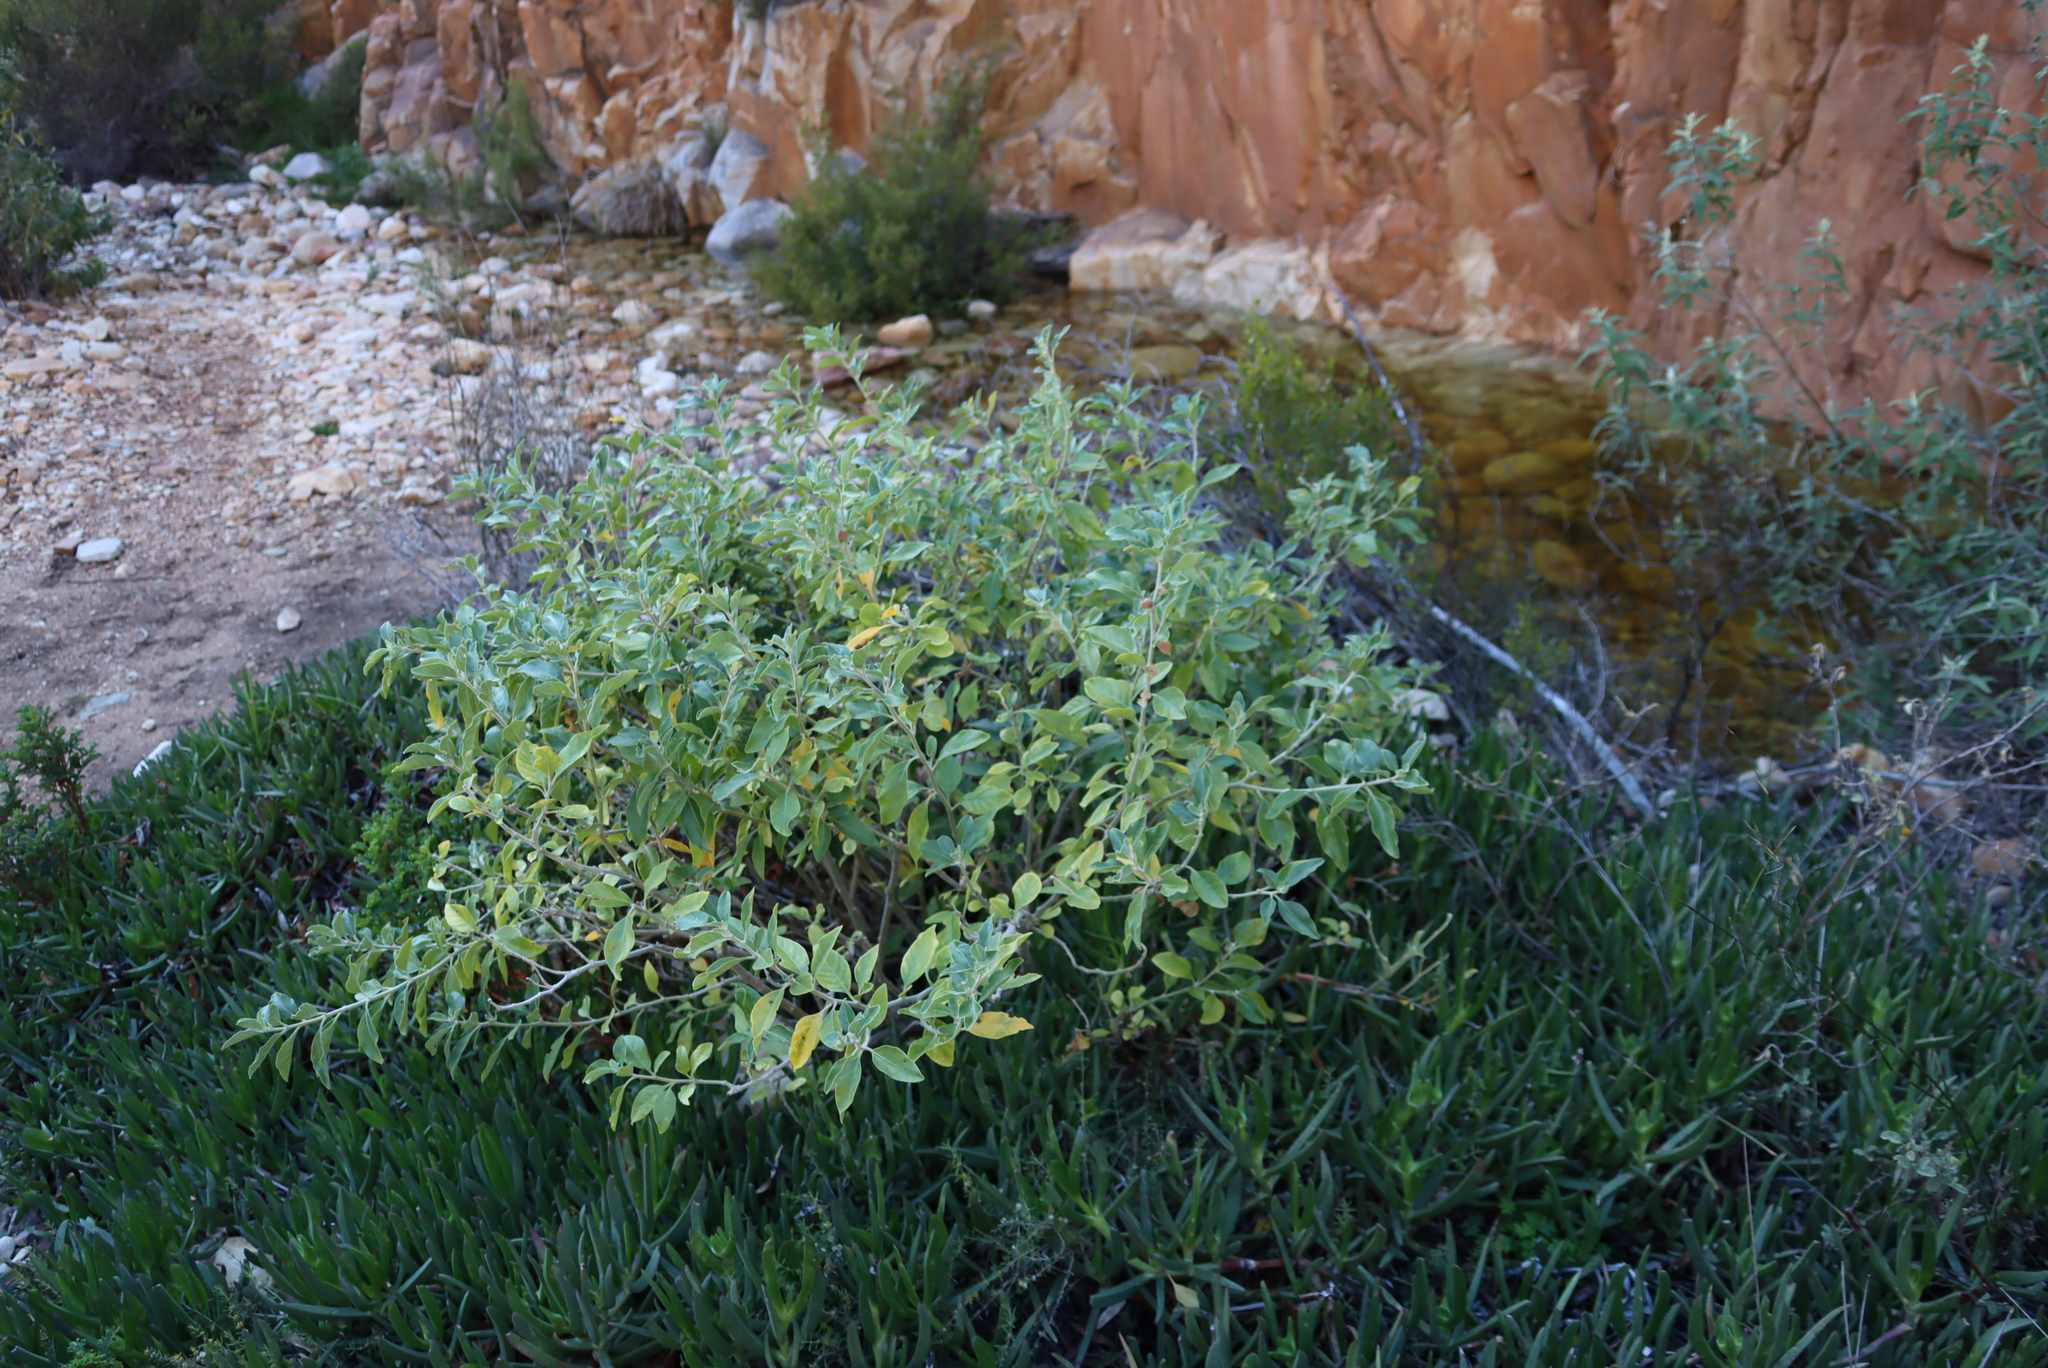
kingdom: Plantae
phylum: Tracheophyta
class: Magnoliopsida
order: Solanales
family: Solanaceae
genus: Withania
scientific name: Withania somnifera
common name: Winter-cherry
